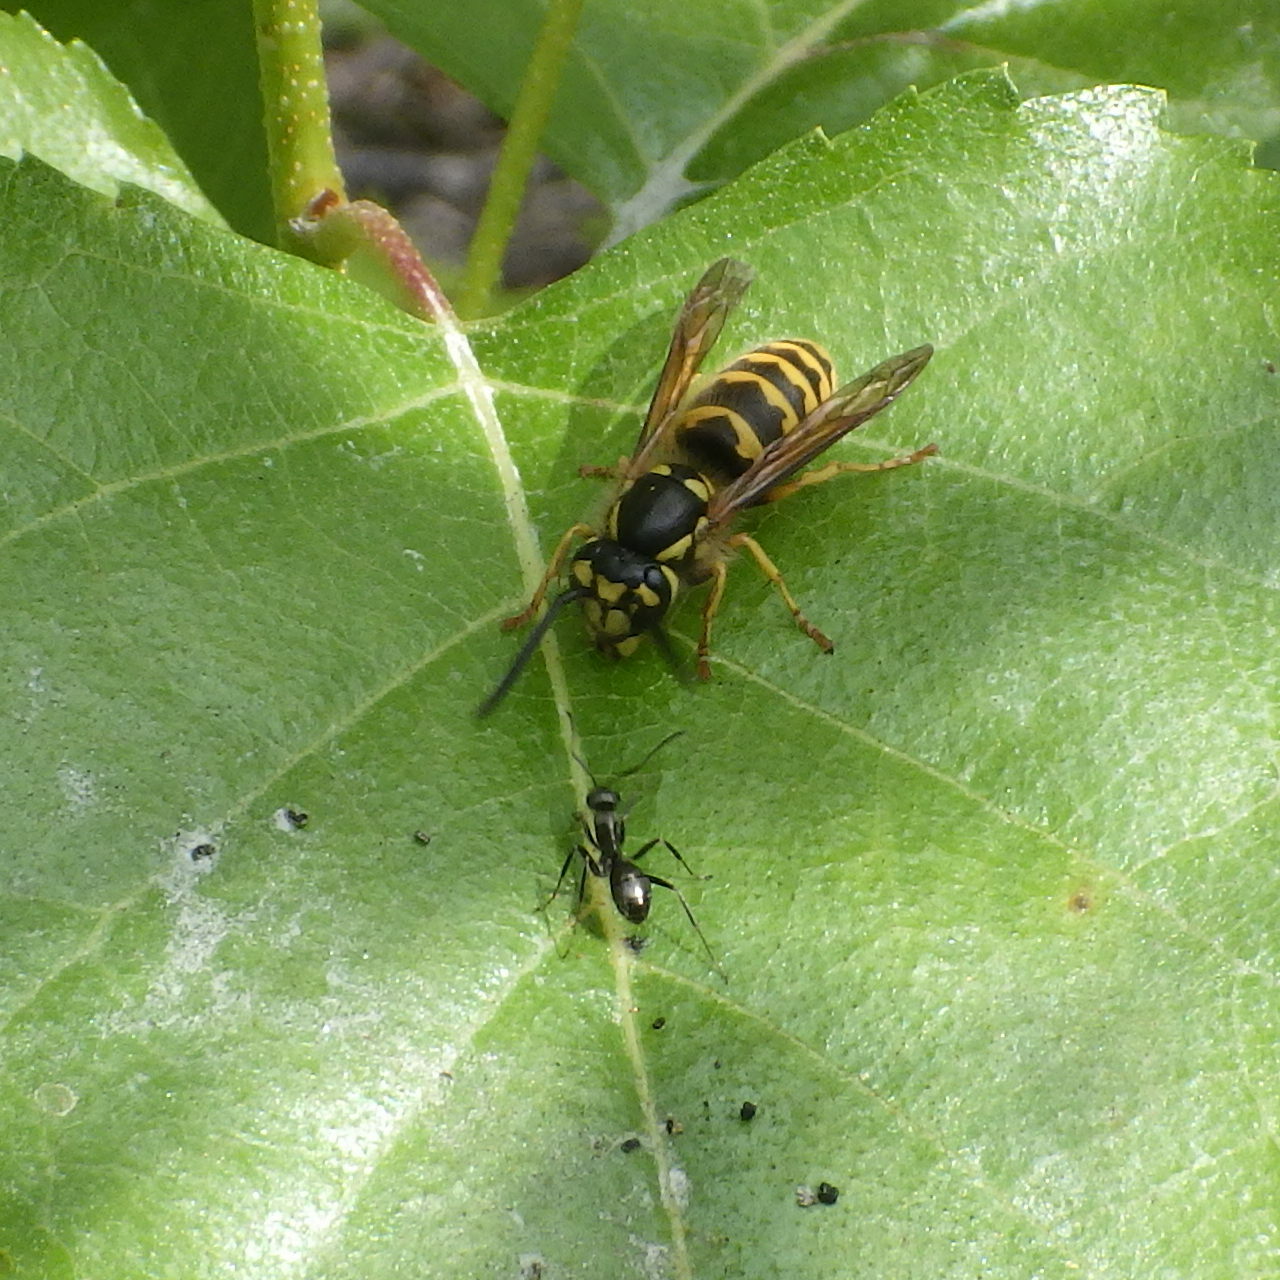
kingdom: Animalia
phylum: Arthropoda
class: Insecta
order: Hymenoptera
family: Vespidae
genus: Vespula
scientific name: Vespula flavopilosa
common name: Downy yellowjacket
